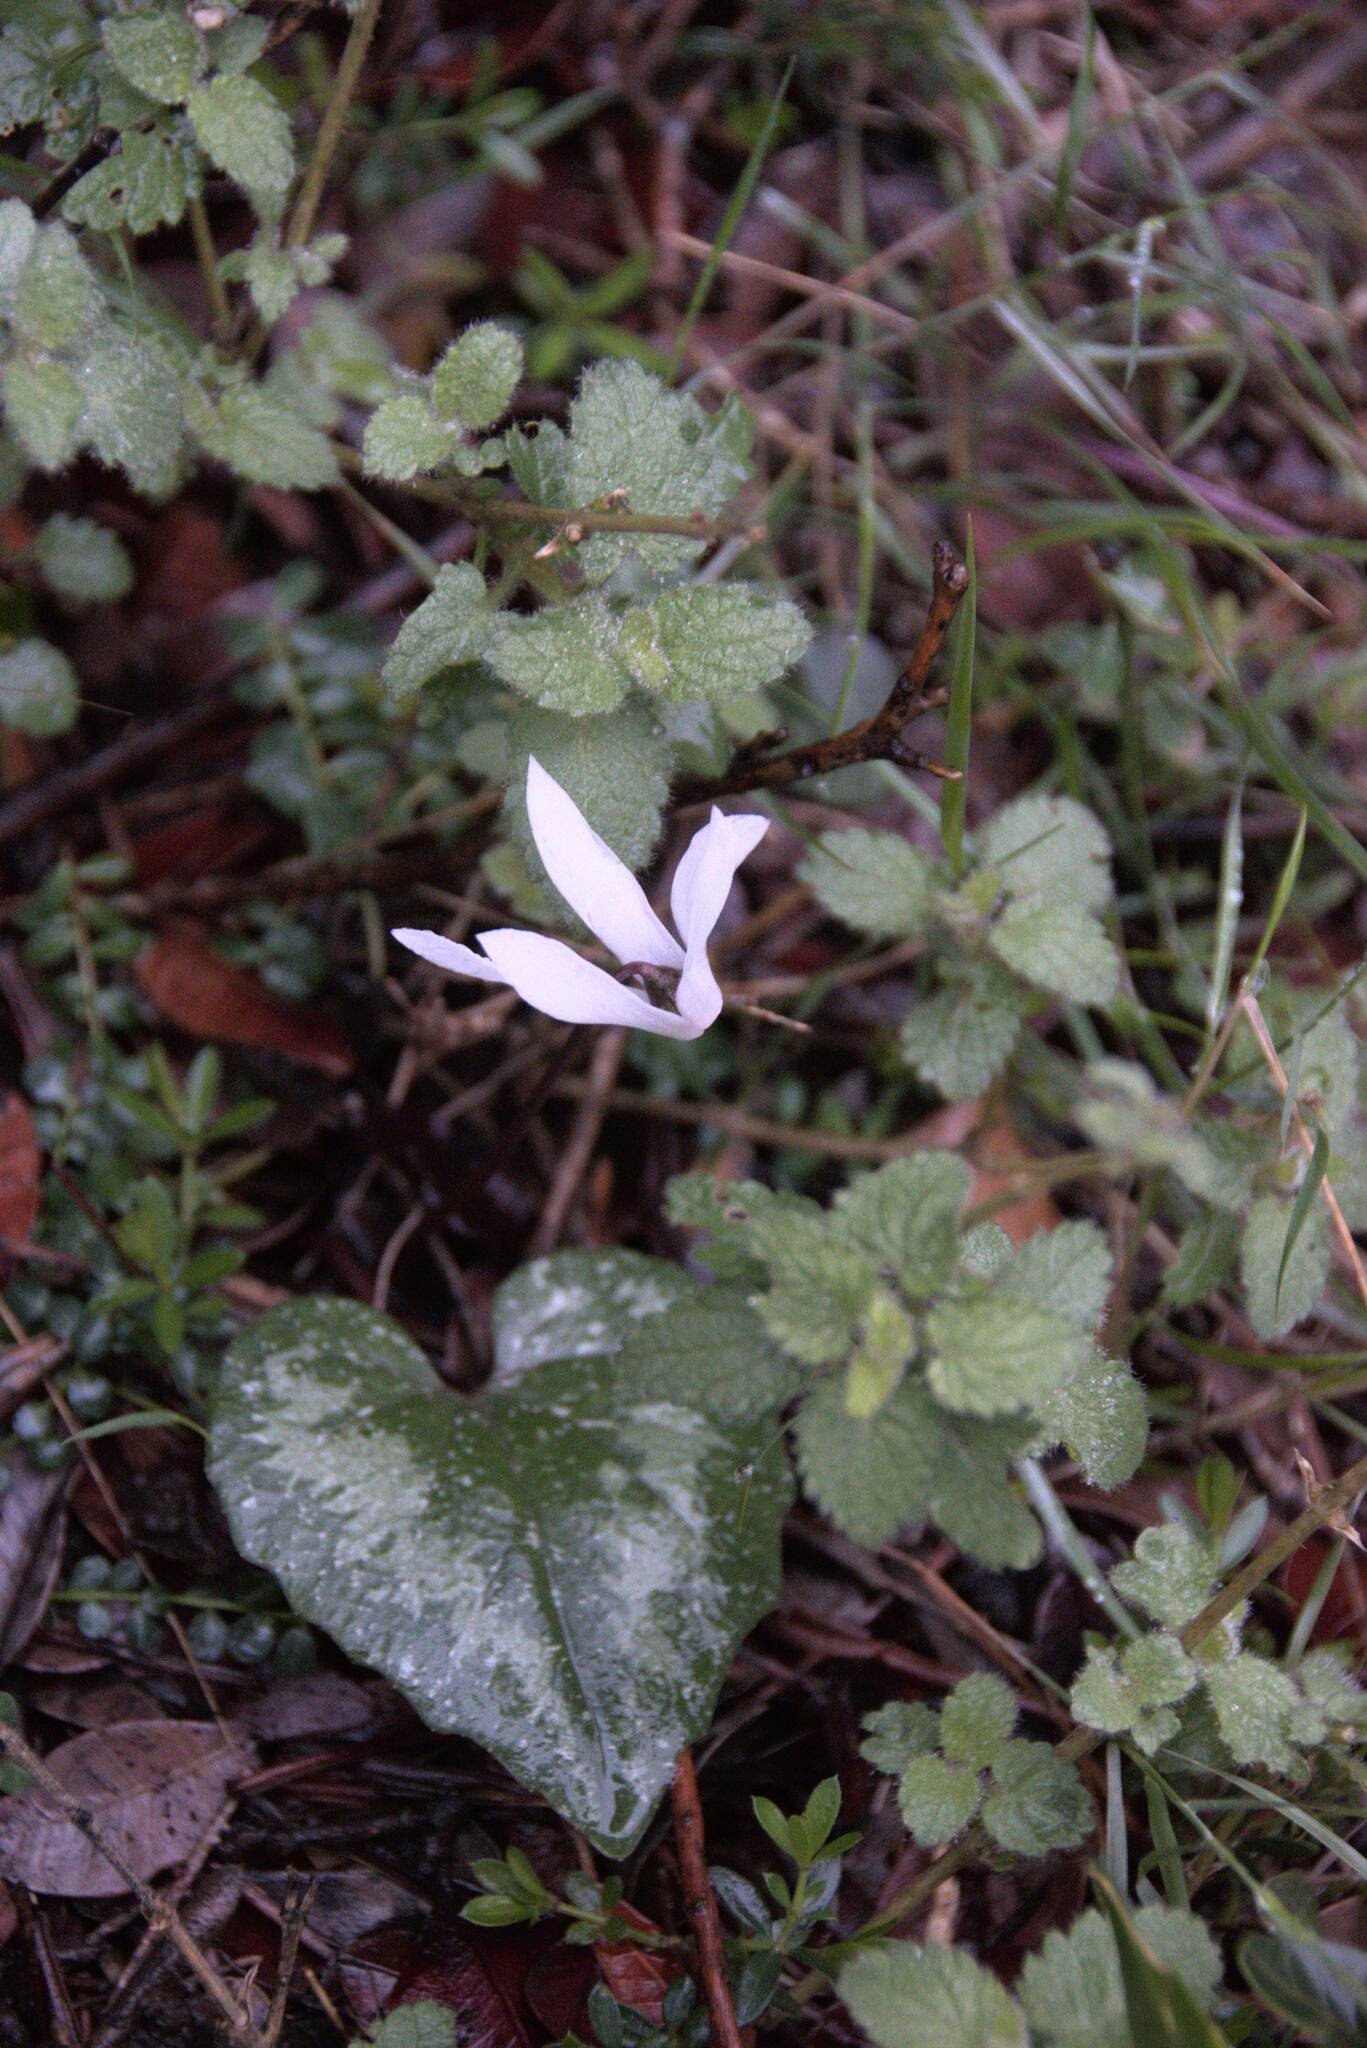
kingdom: Plantae
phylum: Tracheophyta
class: Magnoliopsida
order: Ericales
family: Primulaceae
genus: Cyclamen
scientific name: Cyclamen creticum
